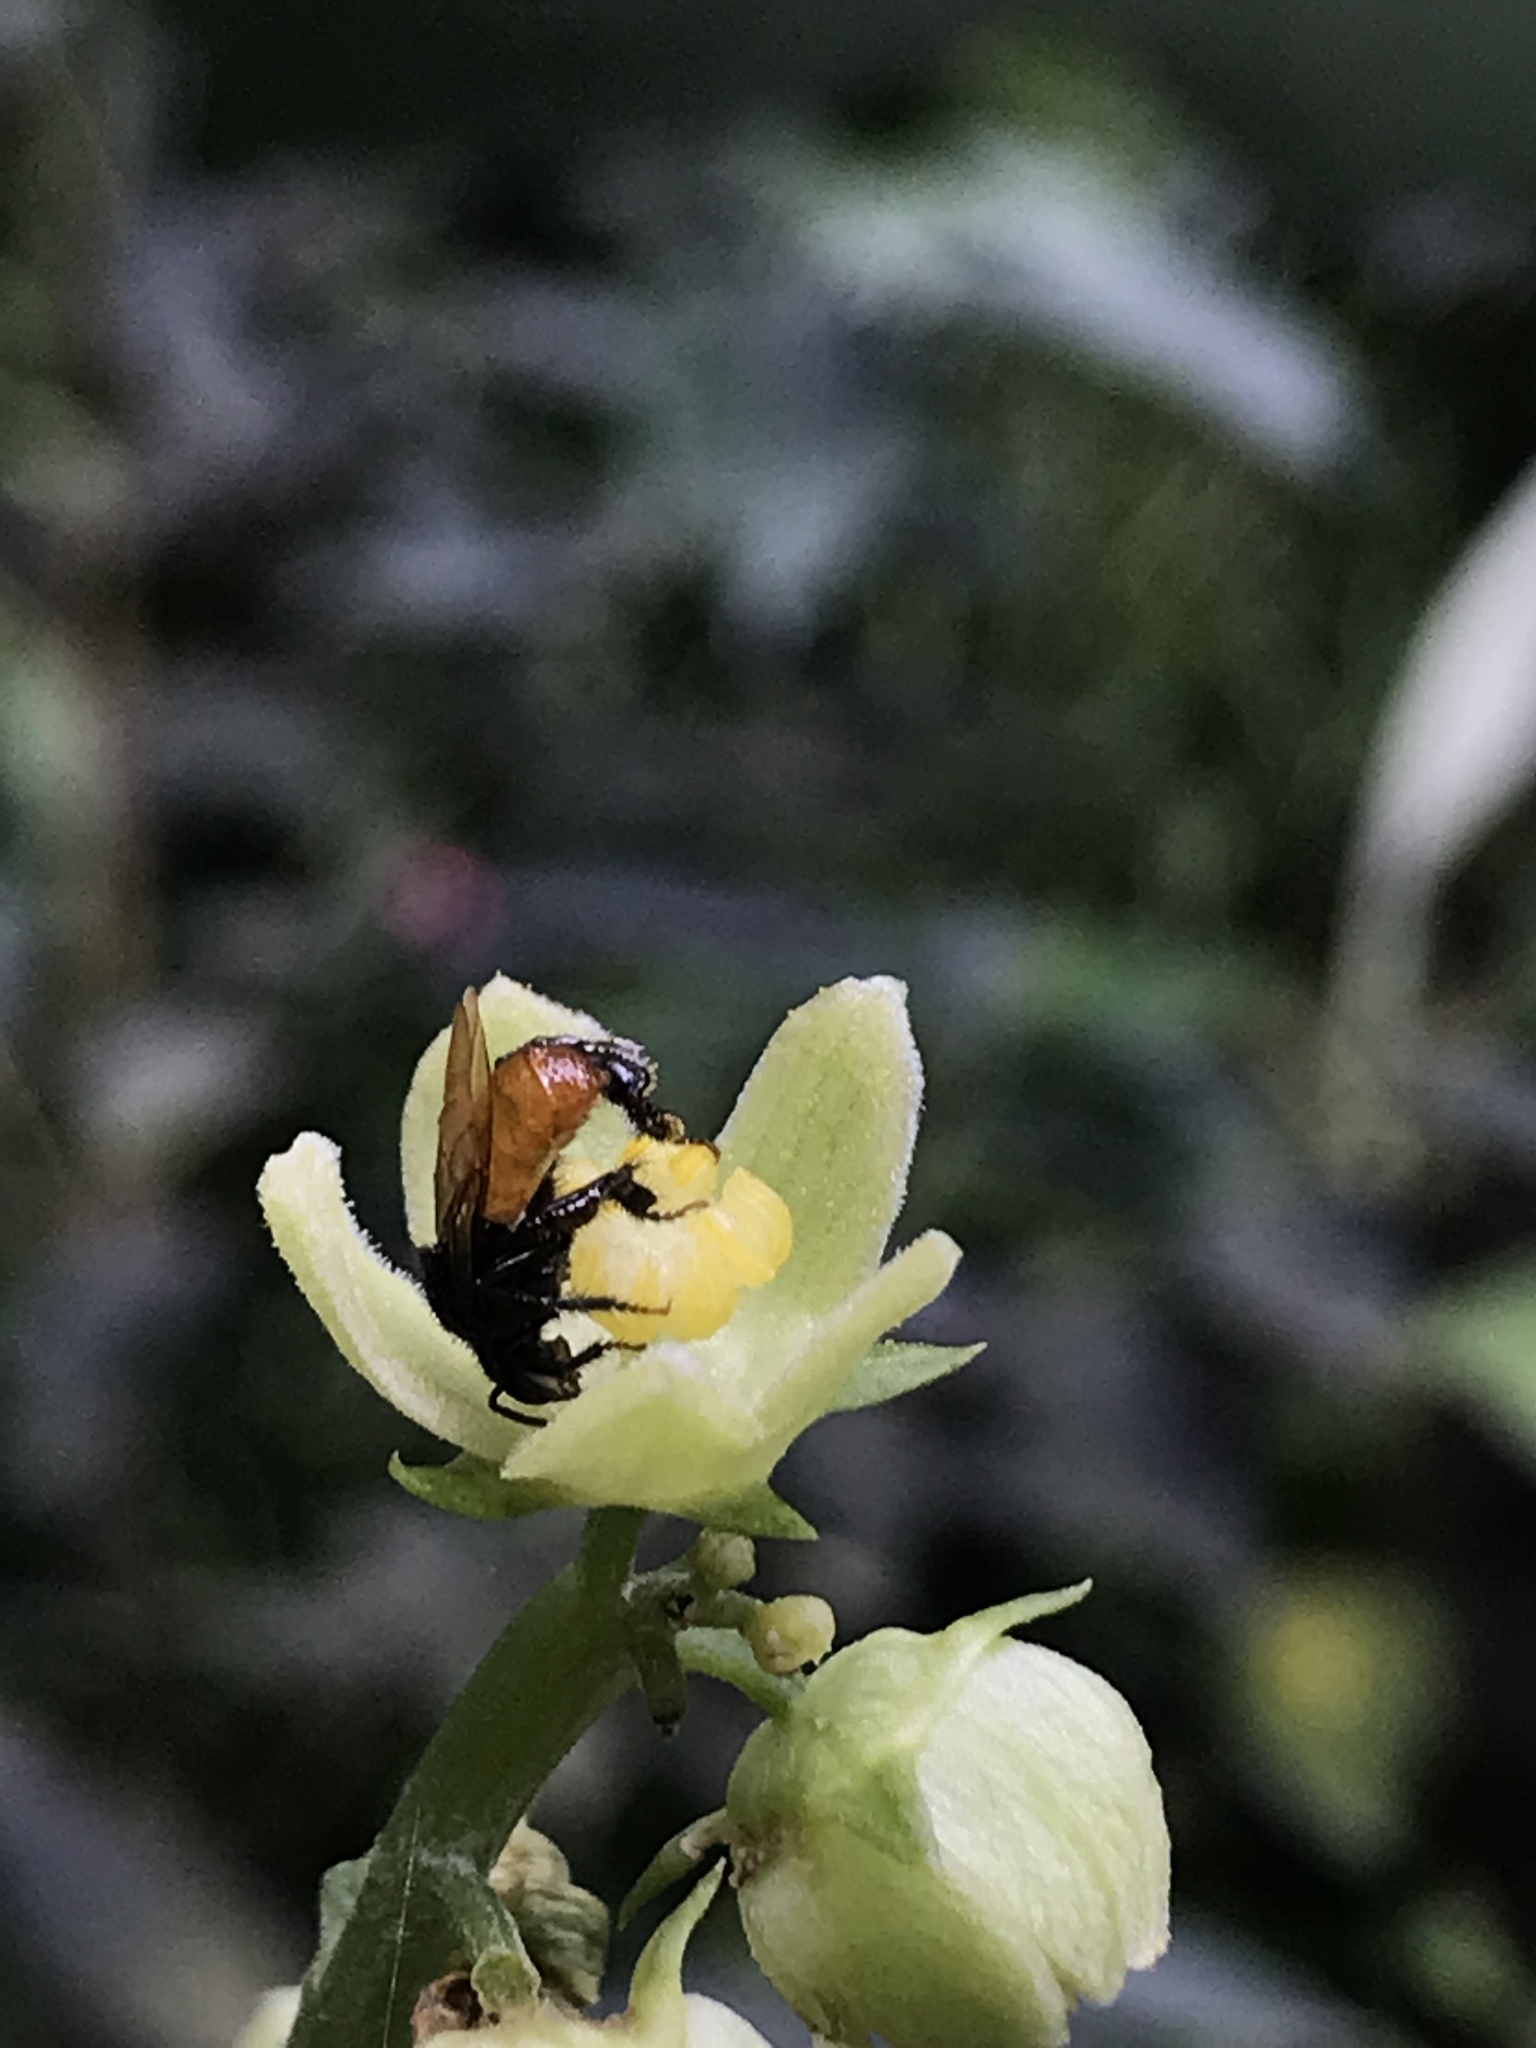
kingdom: Animalia
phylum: Arthropoda
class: Insecta
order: Hymenoptera
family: Apidae
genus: Trigona
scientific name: Trigona fulviventris
